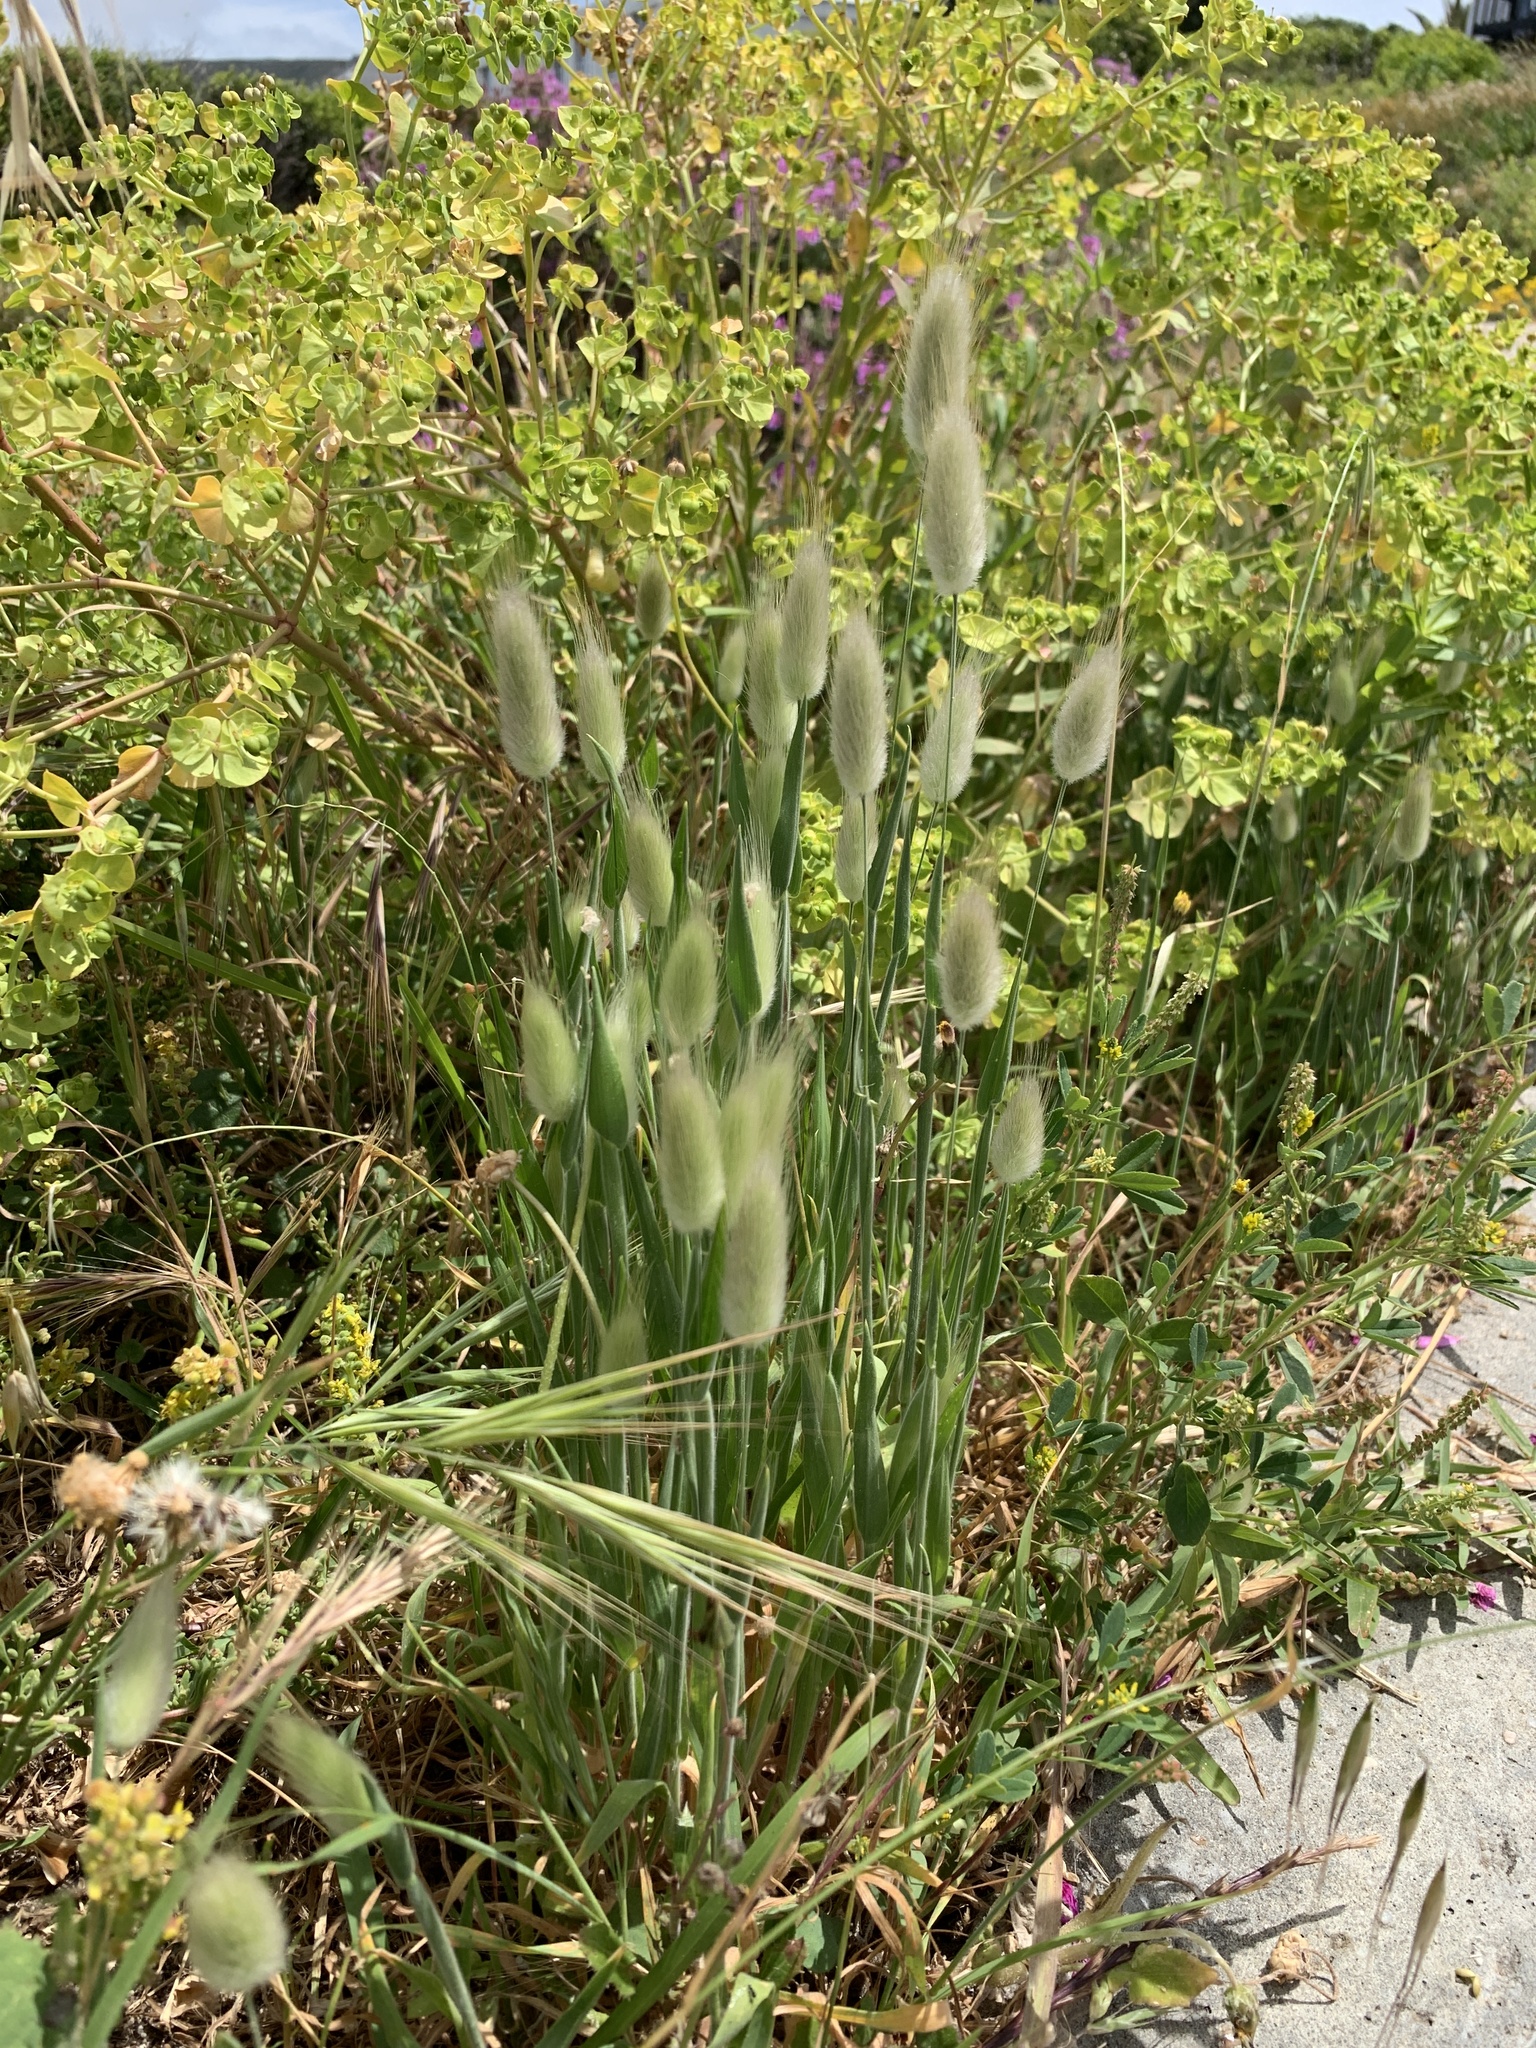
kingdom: Plantae
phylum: Tracheophyta
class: Liliopsida
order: Poales
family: Poaceae
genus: Lagurus
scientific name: Lagurus ovatus
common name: Hare's-tail
